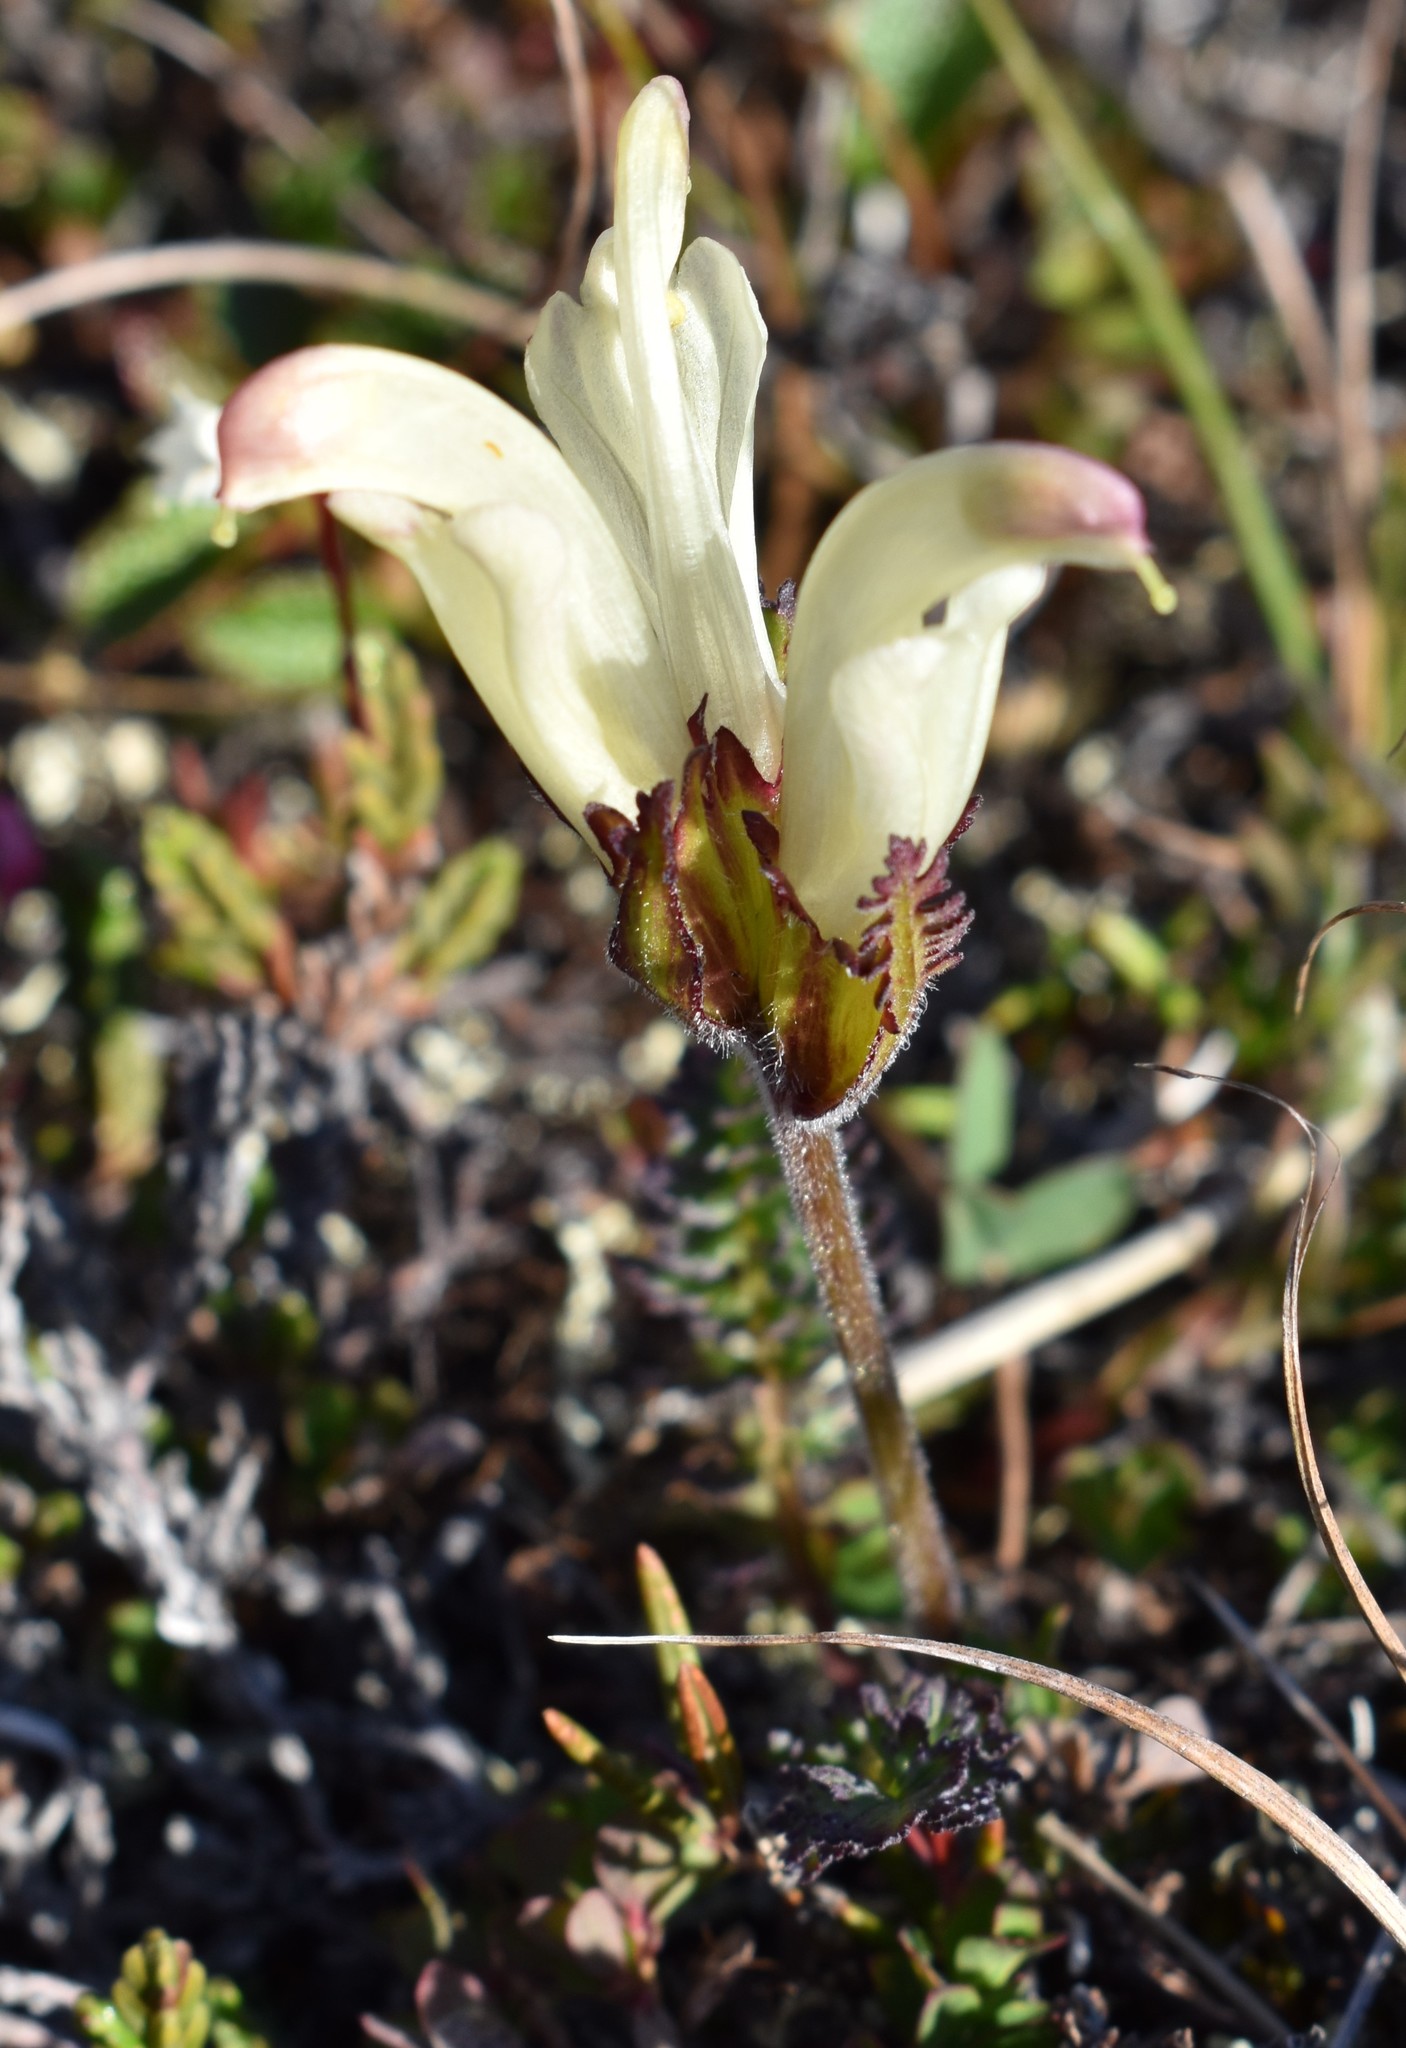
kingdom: Plantae
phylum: Tracheophyta
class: Magnoliopsida
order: Lamiales
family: Orobanchaceae
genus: Pedicularis
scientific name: Pedicularis capitata
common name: Capitate lousewort
